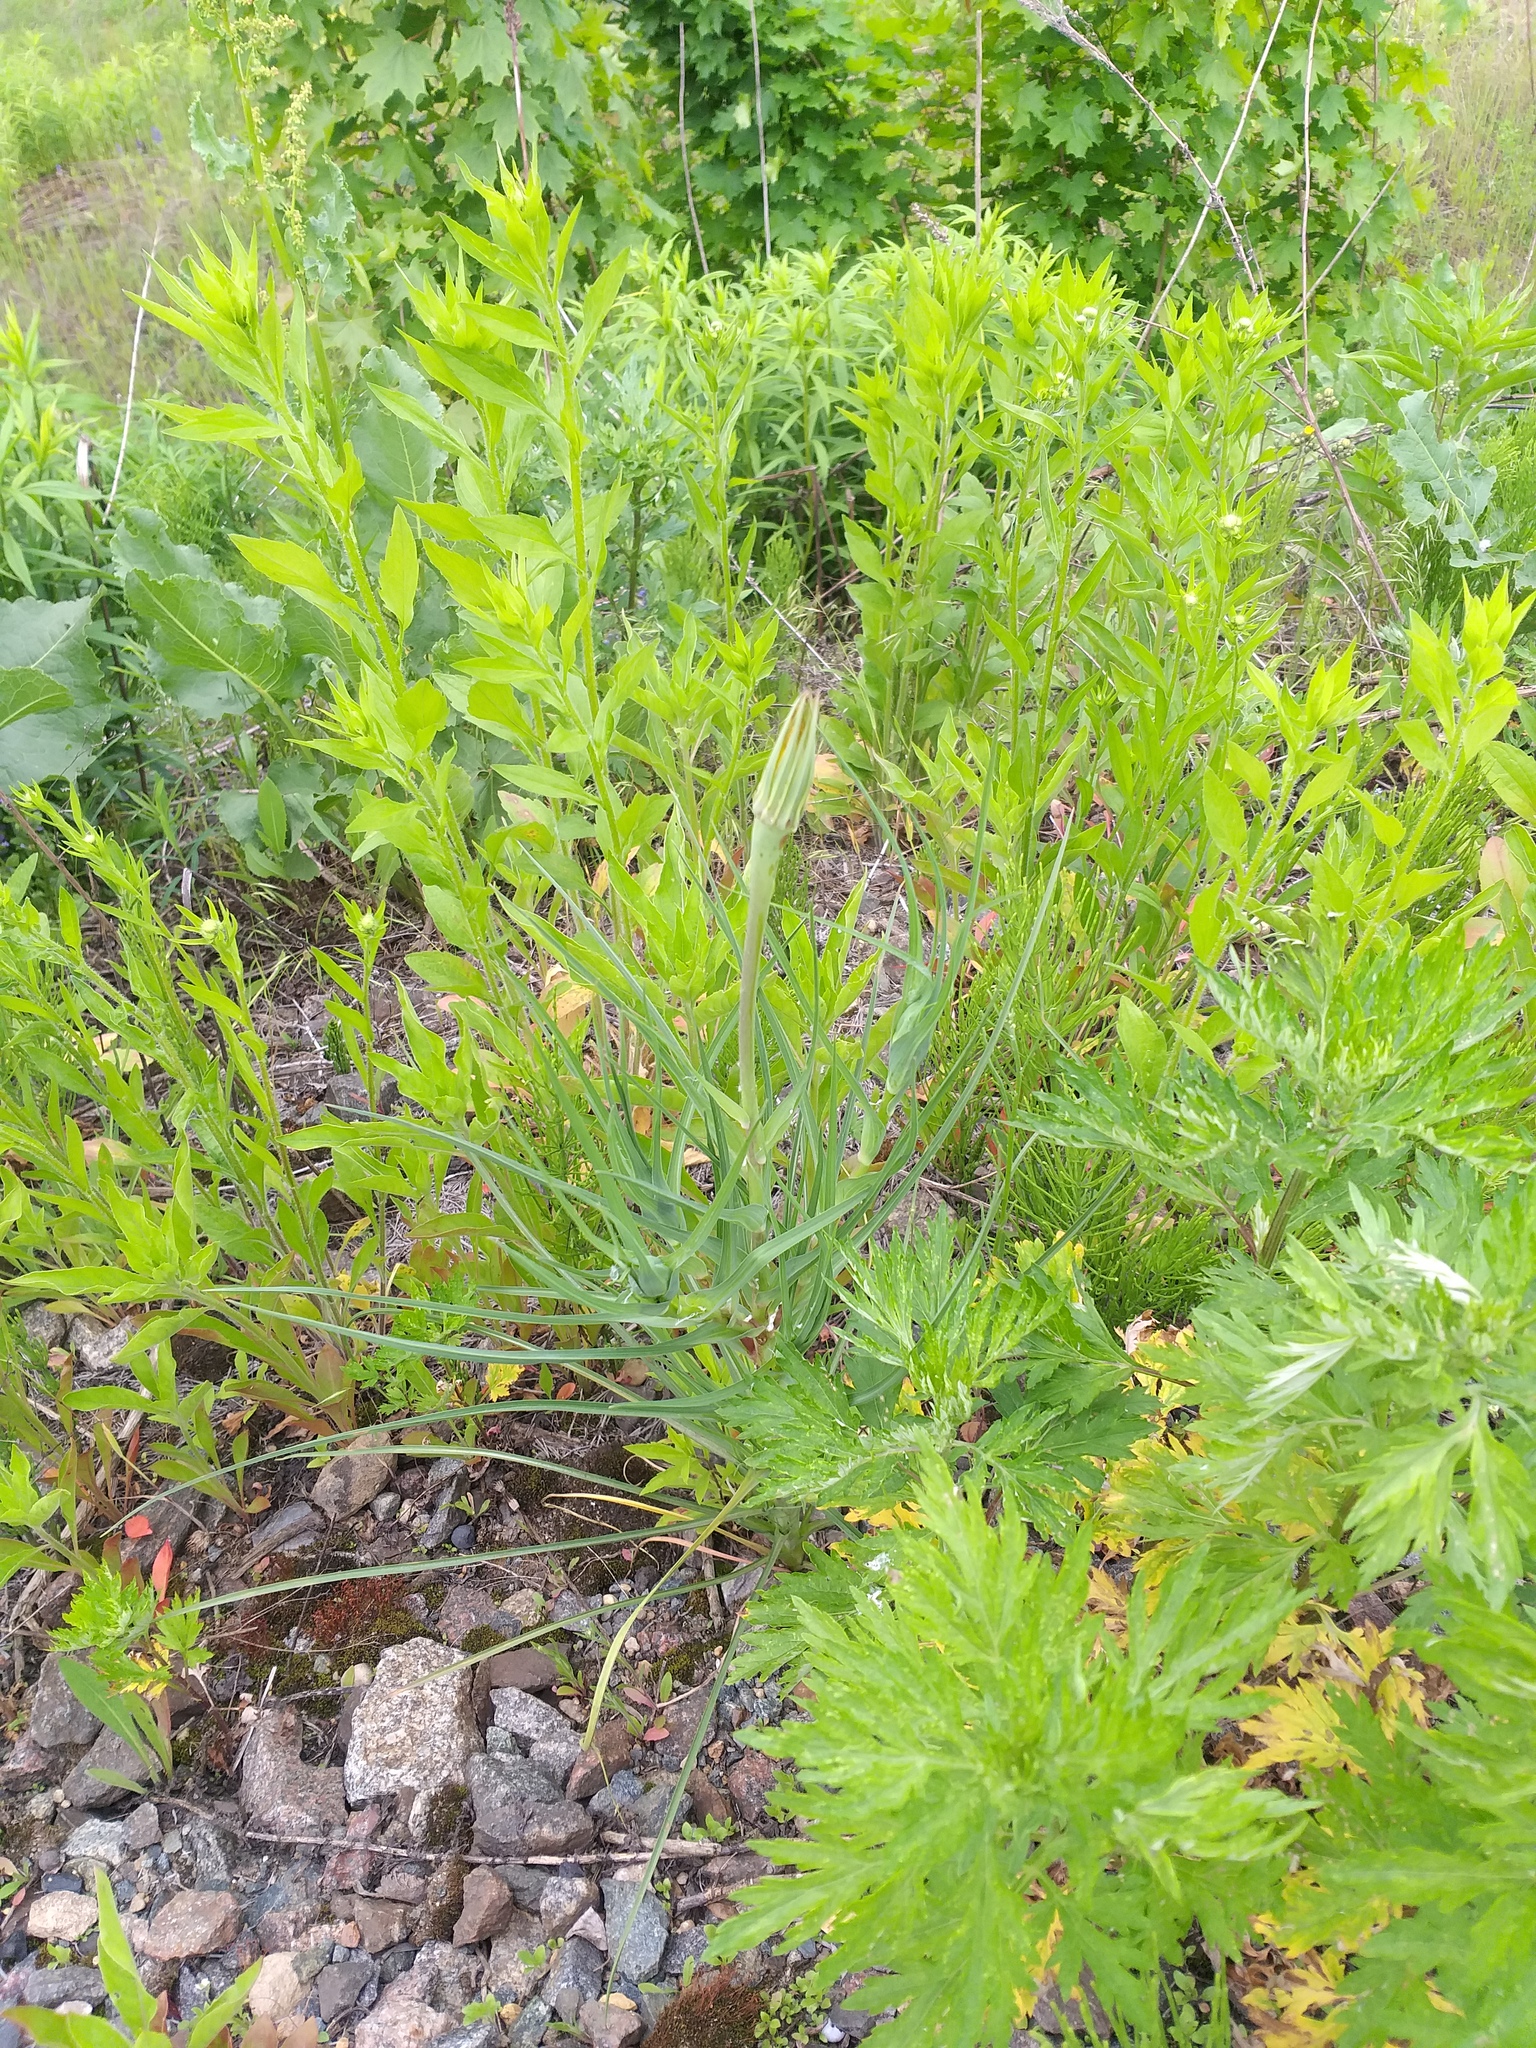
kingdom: Plantae
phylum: Tracheophyta
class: Magnoliopsida
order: Asterales
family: Asteraceae
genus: Tragopogon
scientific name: Tragopogon dubius
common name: Yellow salsify
